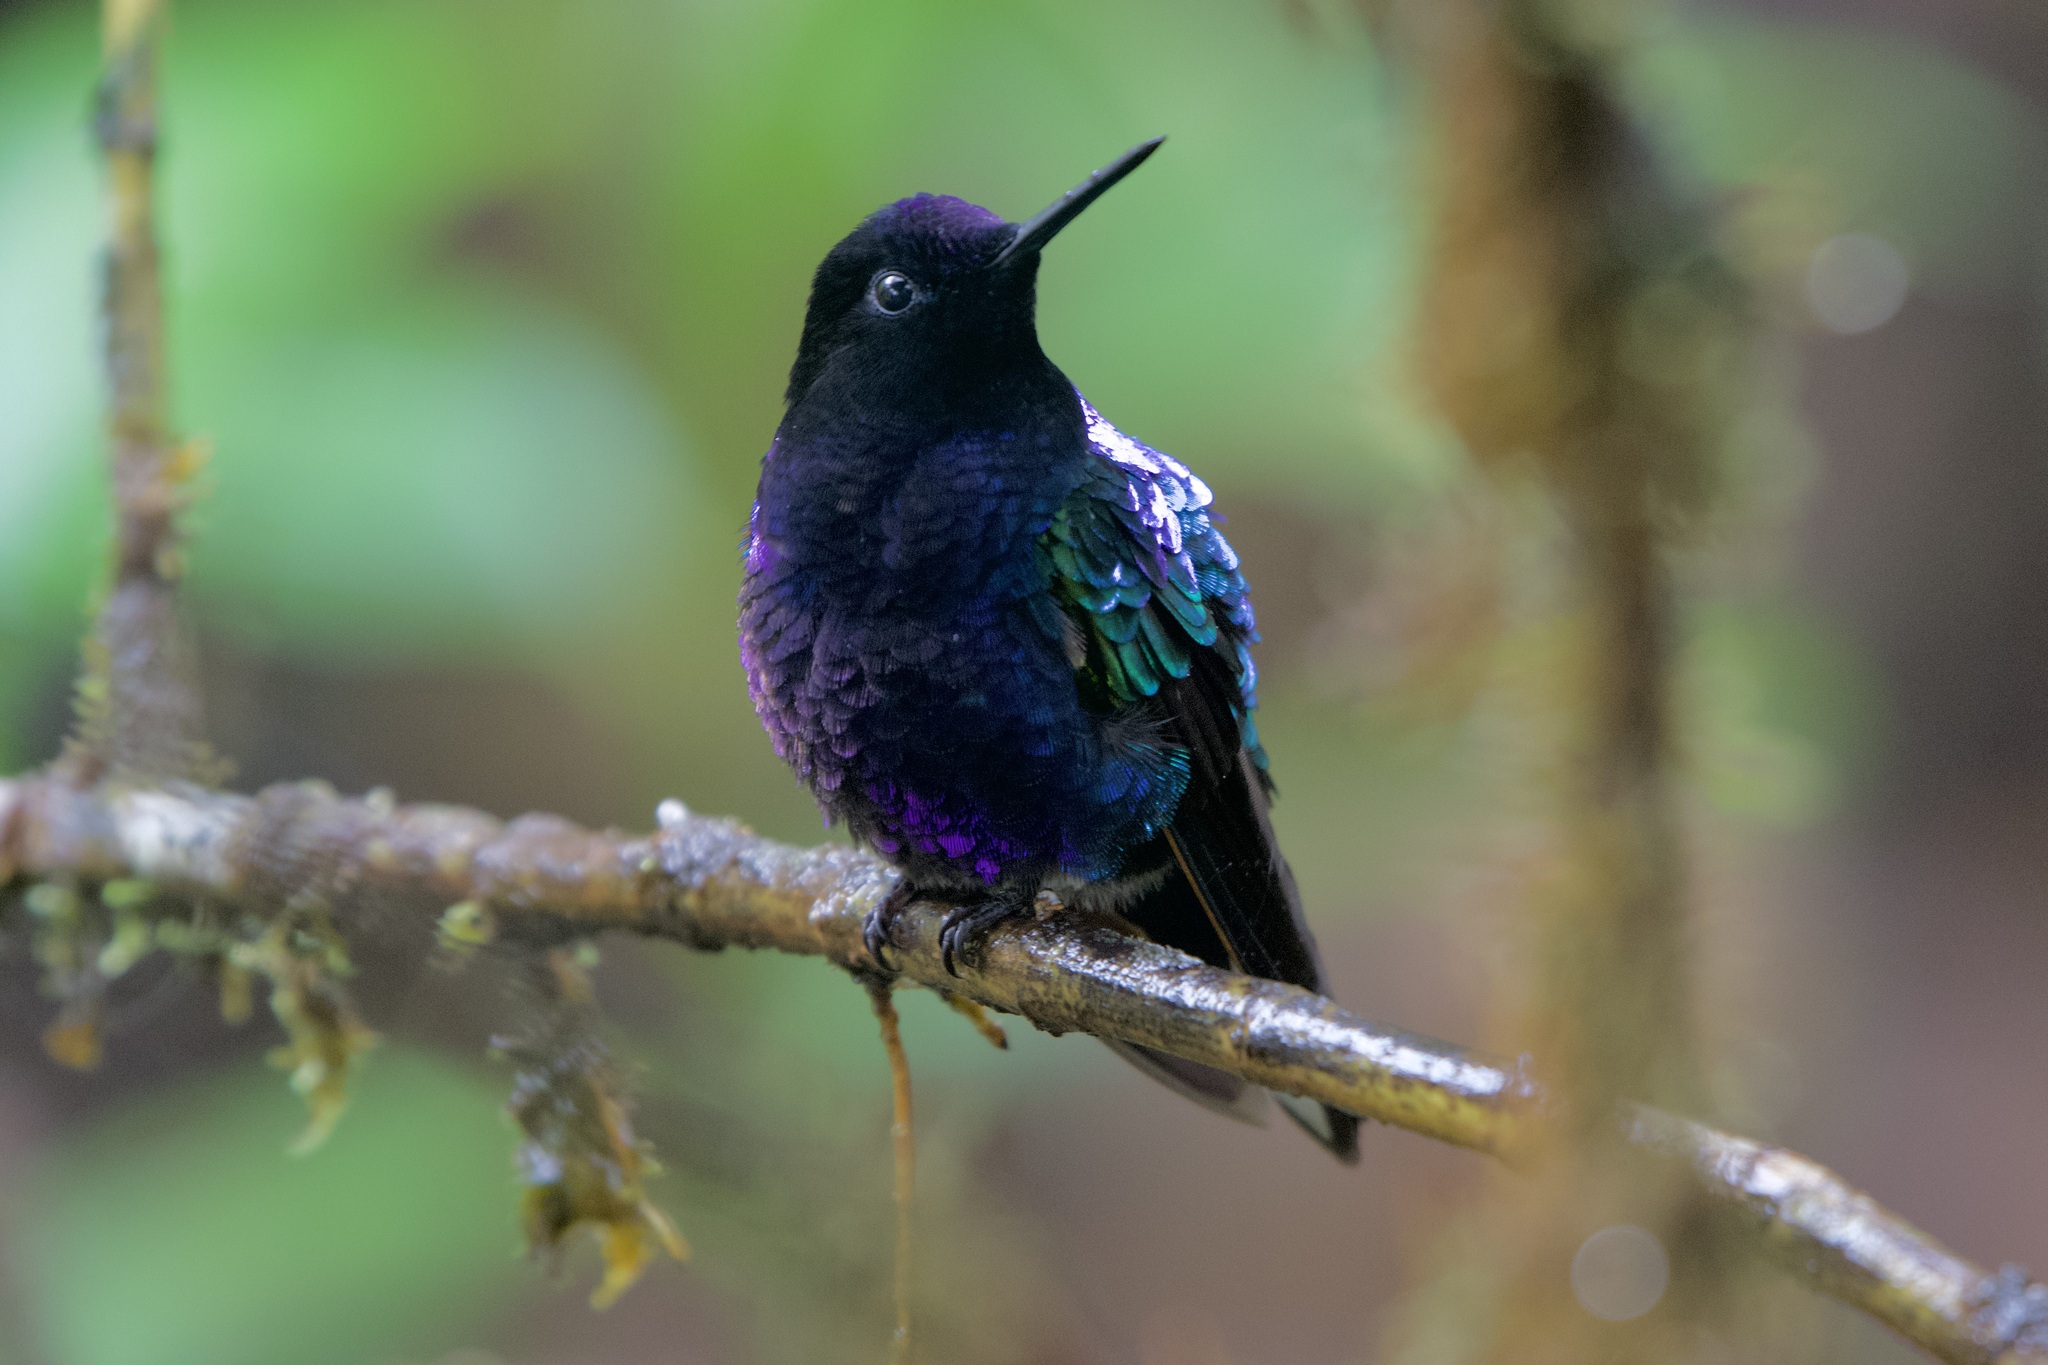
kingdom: Animalia
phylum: Chordata
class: Aves
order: Apodiformes
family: Trochilidae
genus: Boissonneaua
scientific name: Boissonneaua jardini
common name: Velvet-purple coronet
